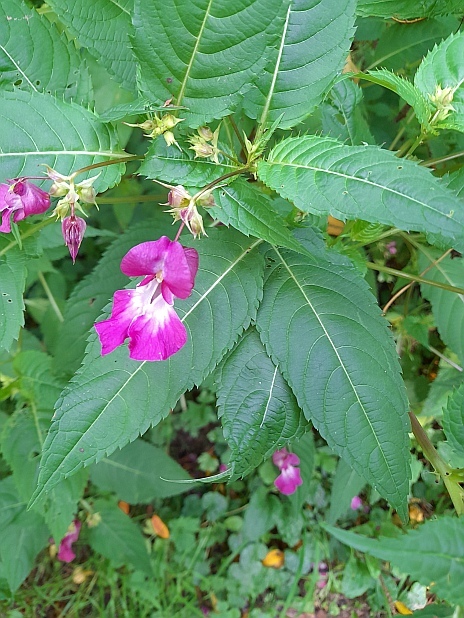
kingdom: Plantae
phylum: Tracheophyta
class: Magnoliopsida
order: Ericales
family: Balsaminaceae
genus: Impatiens
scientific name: Impatiens glandulifera
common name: Himalayan balsam
